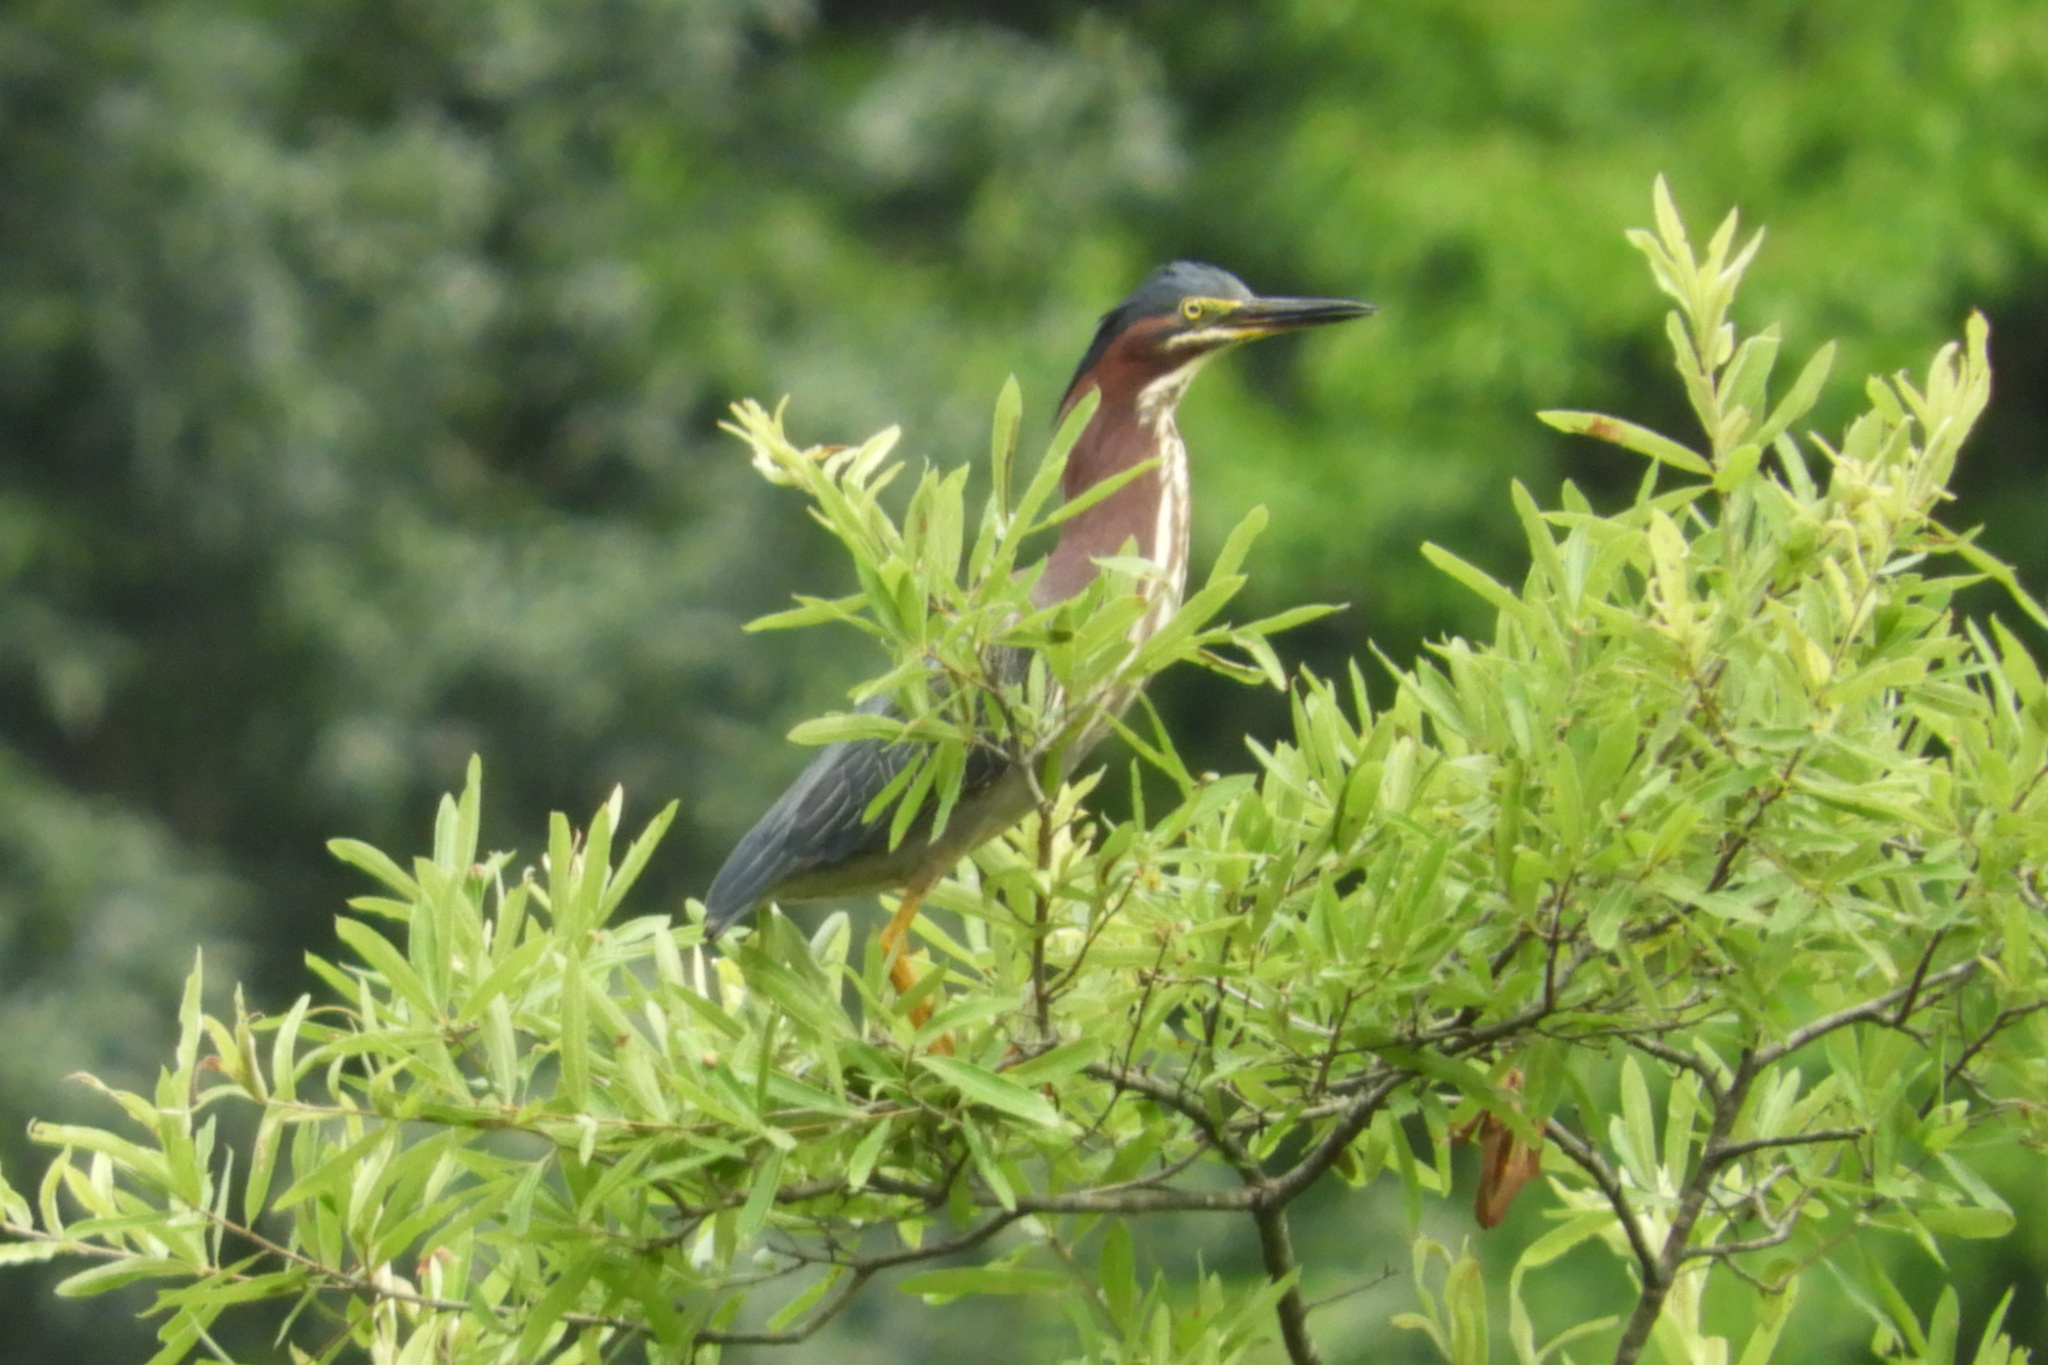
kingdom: Animalia
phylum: Chordata
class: Aves
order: Pelecaniformes
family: Ardeidae
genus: Butorides
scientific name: Butorides virescens
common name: Green heron
